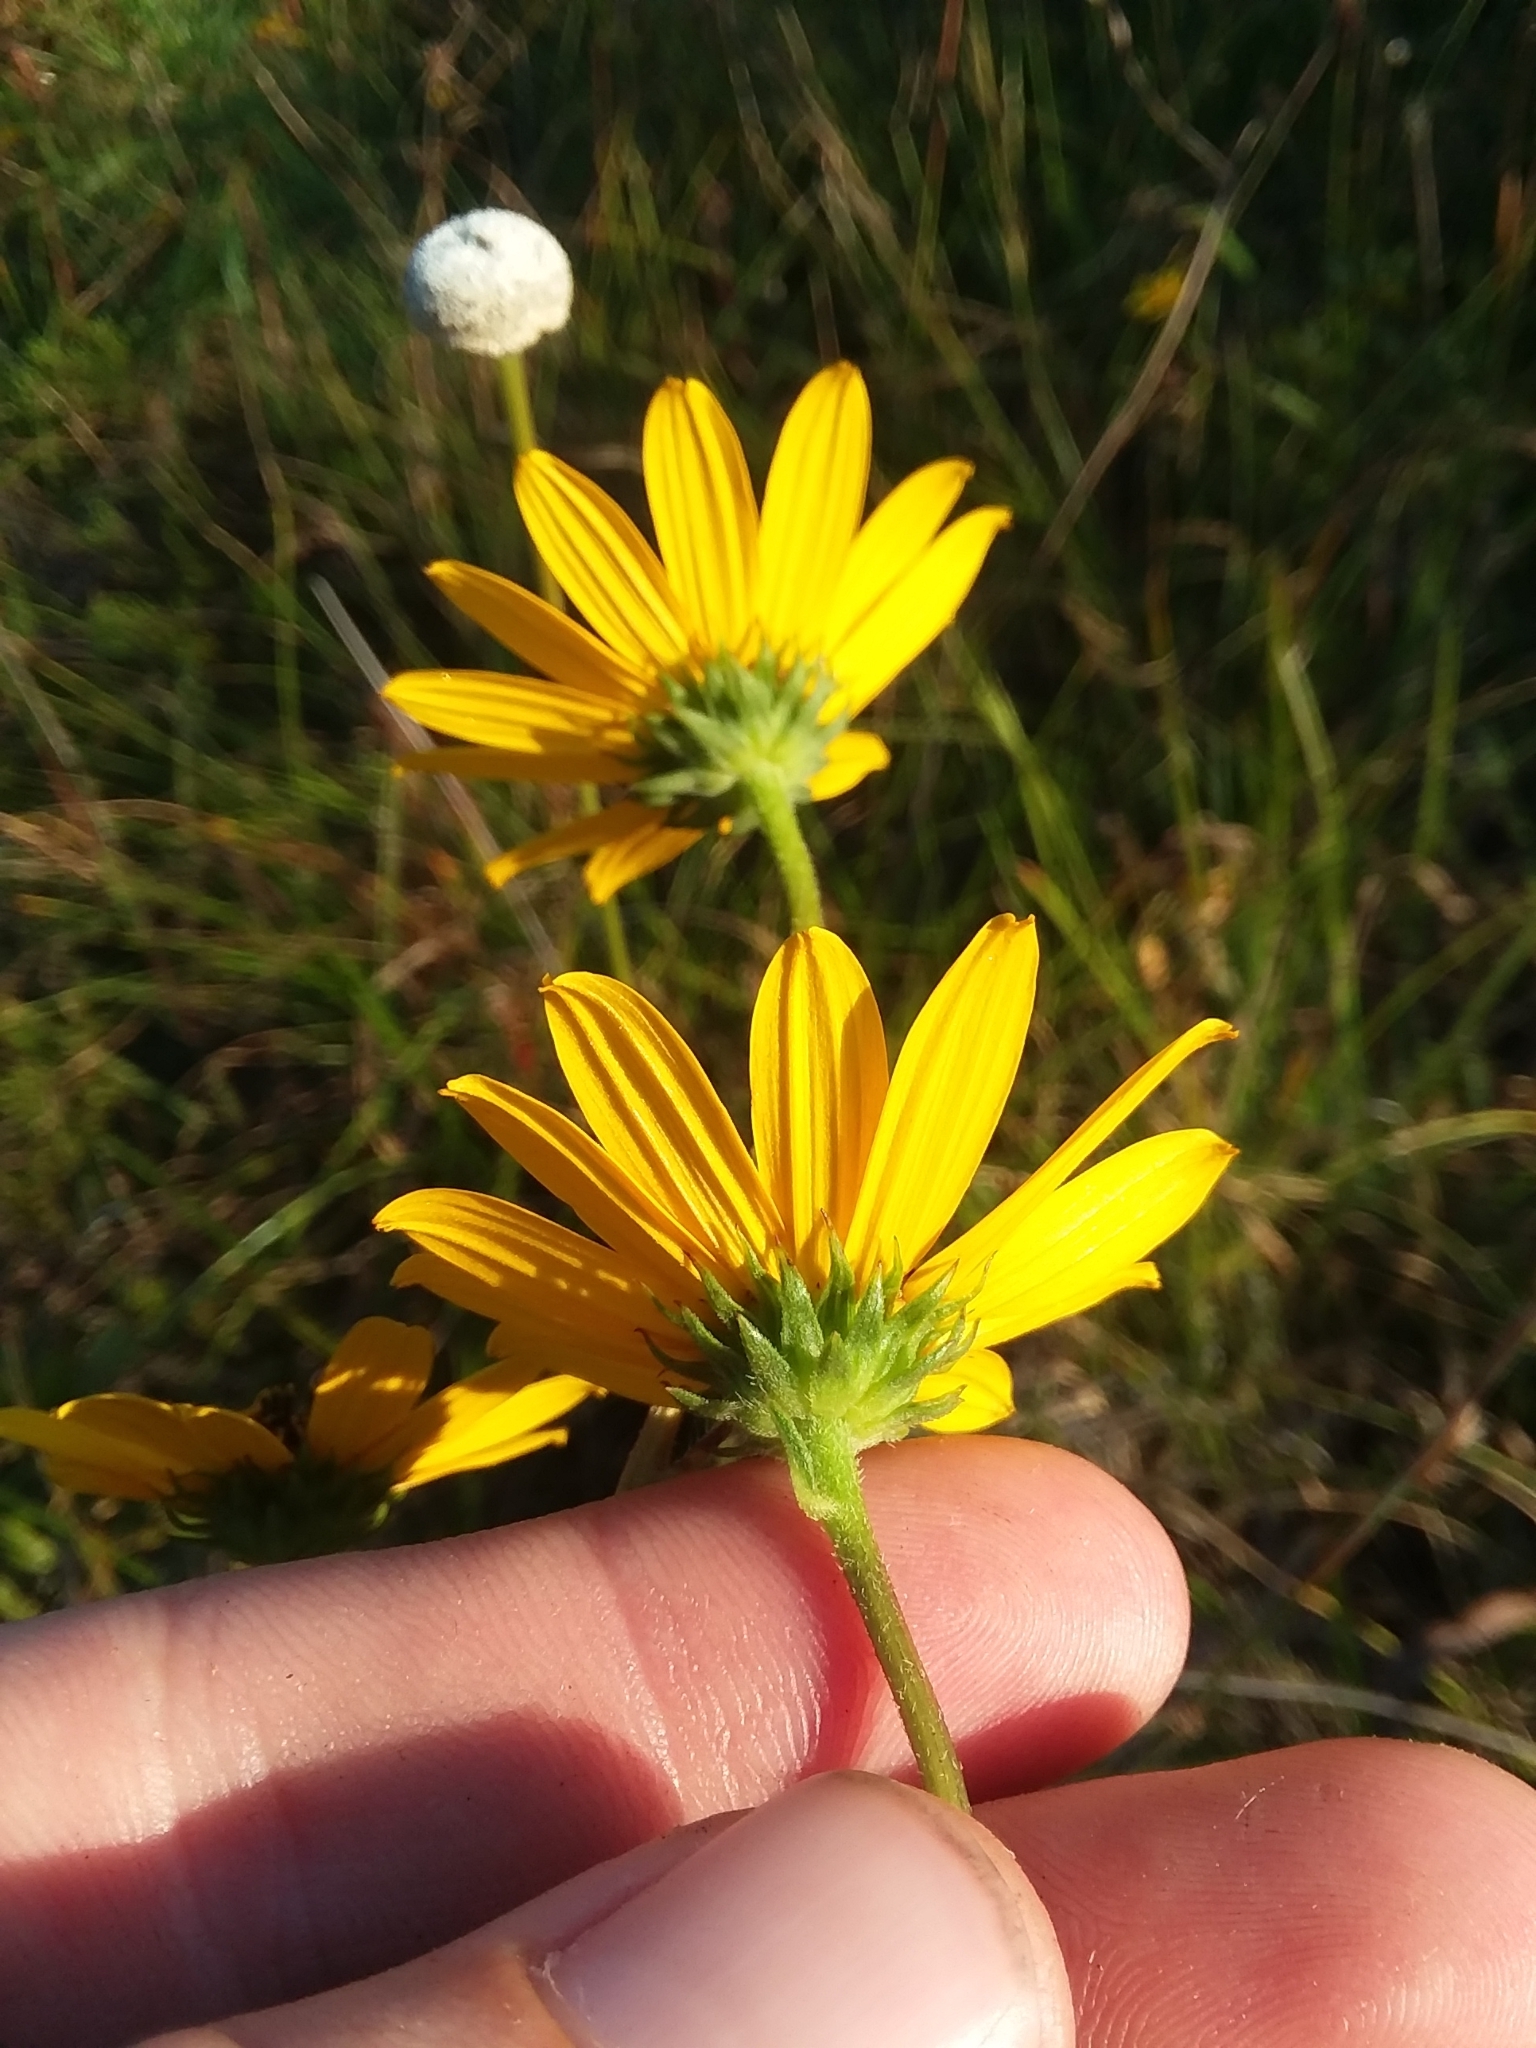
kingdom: Plantae
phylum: Tracheophyta
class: Magnoliopsida
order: Asterales
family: Asteraceae
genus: Helianthus
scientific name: Helianthus angustifolius
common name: Swamp sunflower
